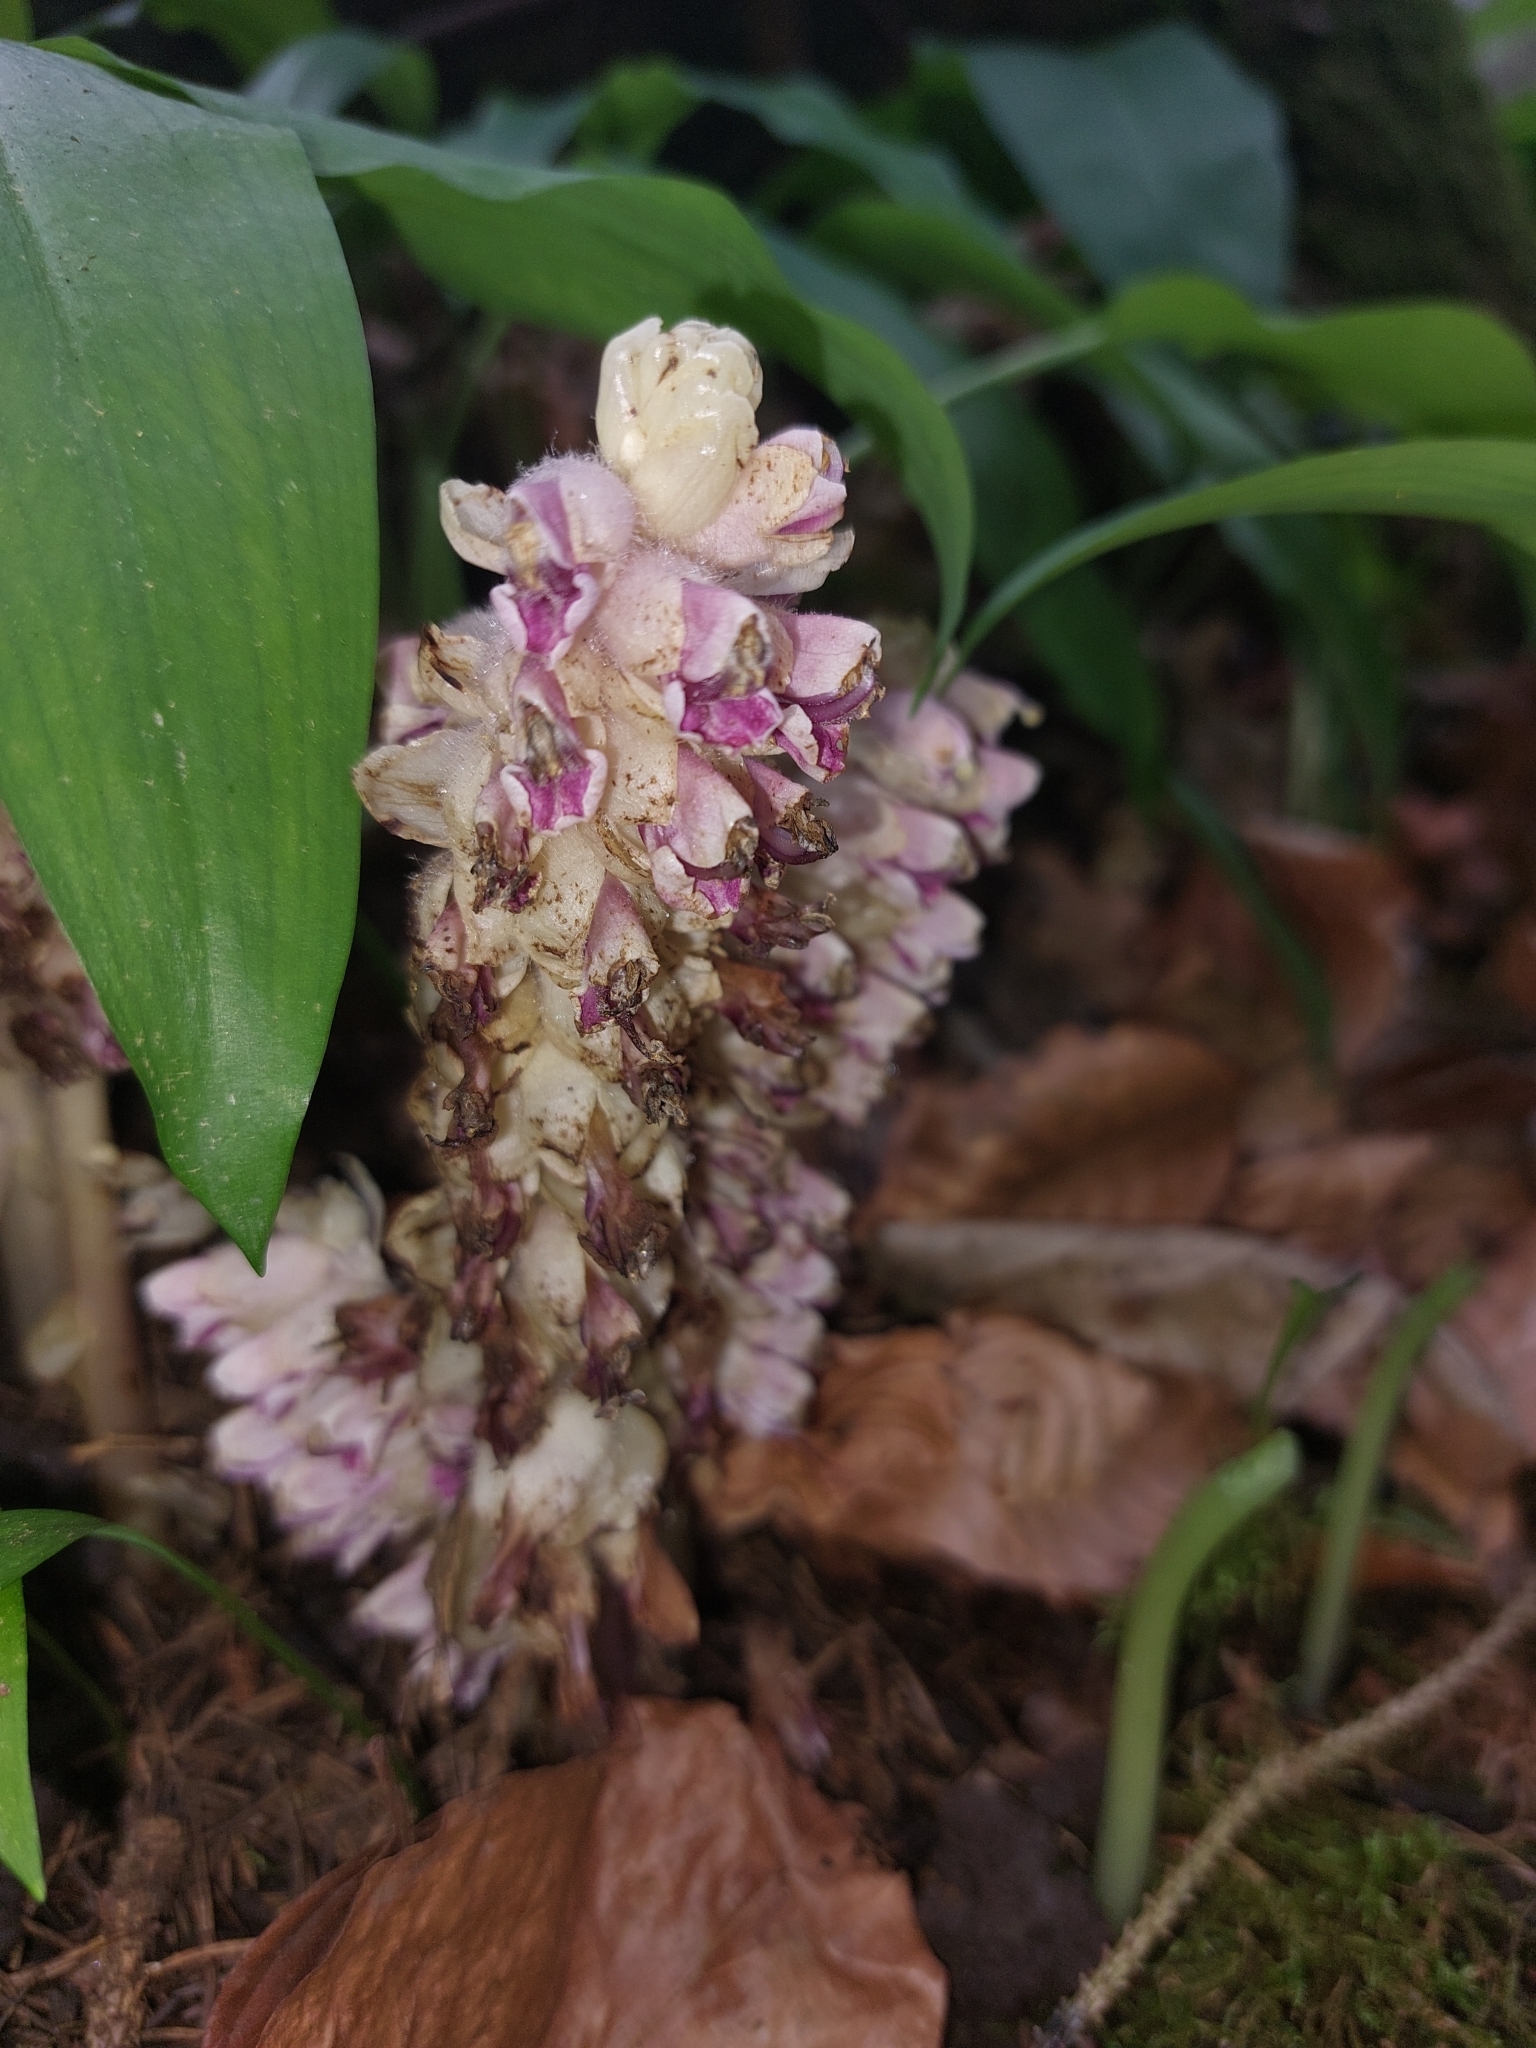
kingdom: Plantae
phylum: Tracheophyta
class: Magnoliopsida
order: Lamiales
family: Orobanchaceae
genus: Lathraea
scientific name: Lathraea squamaria
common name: Toothwort
